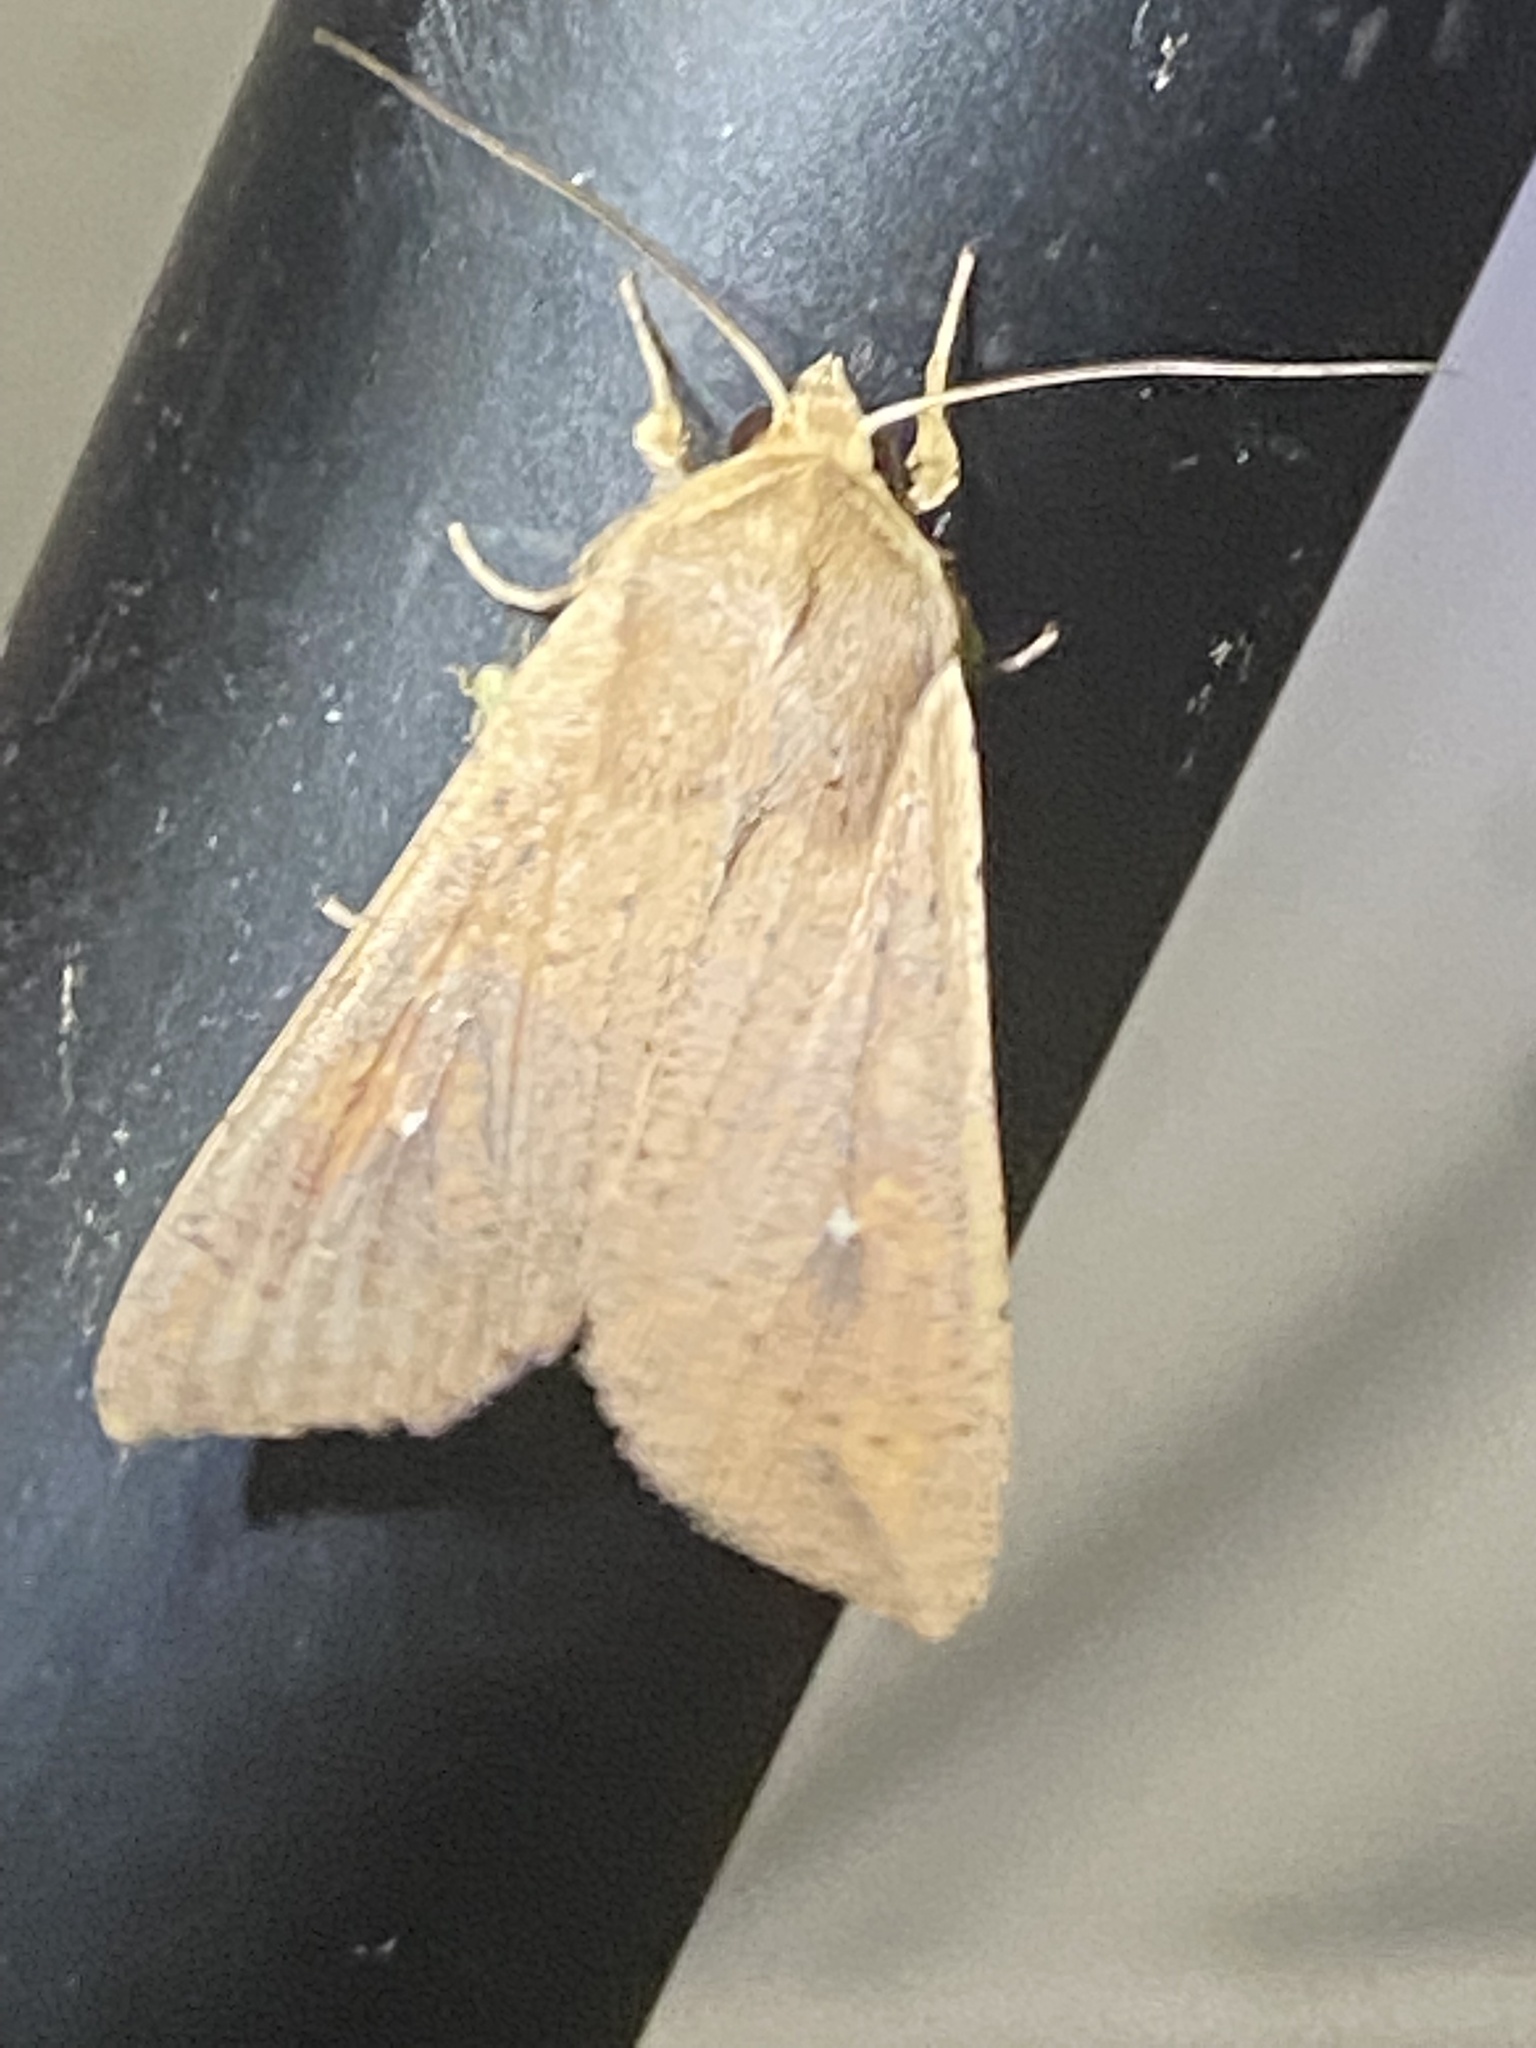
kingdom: Animalia
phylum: Arthropoda
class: Insecta
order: Lepidoptera
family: Noctuidae
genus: Mythimna
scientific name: Mythimna unipuncta
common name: White-speck
